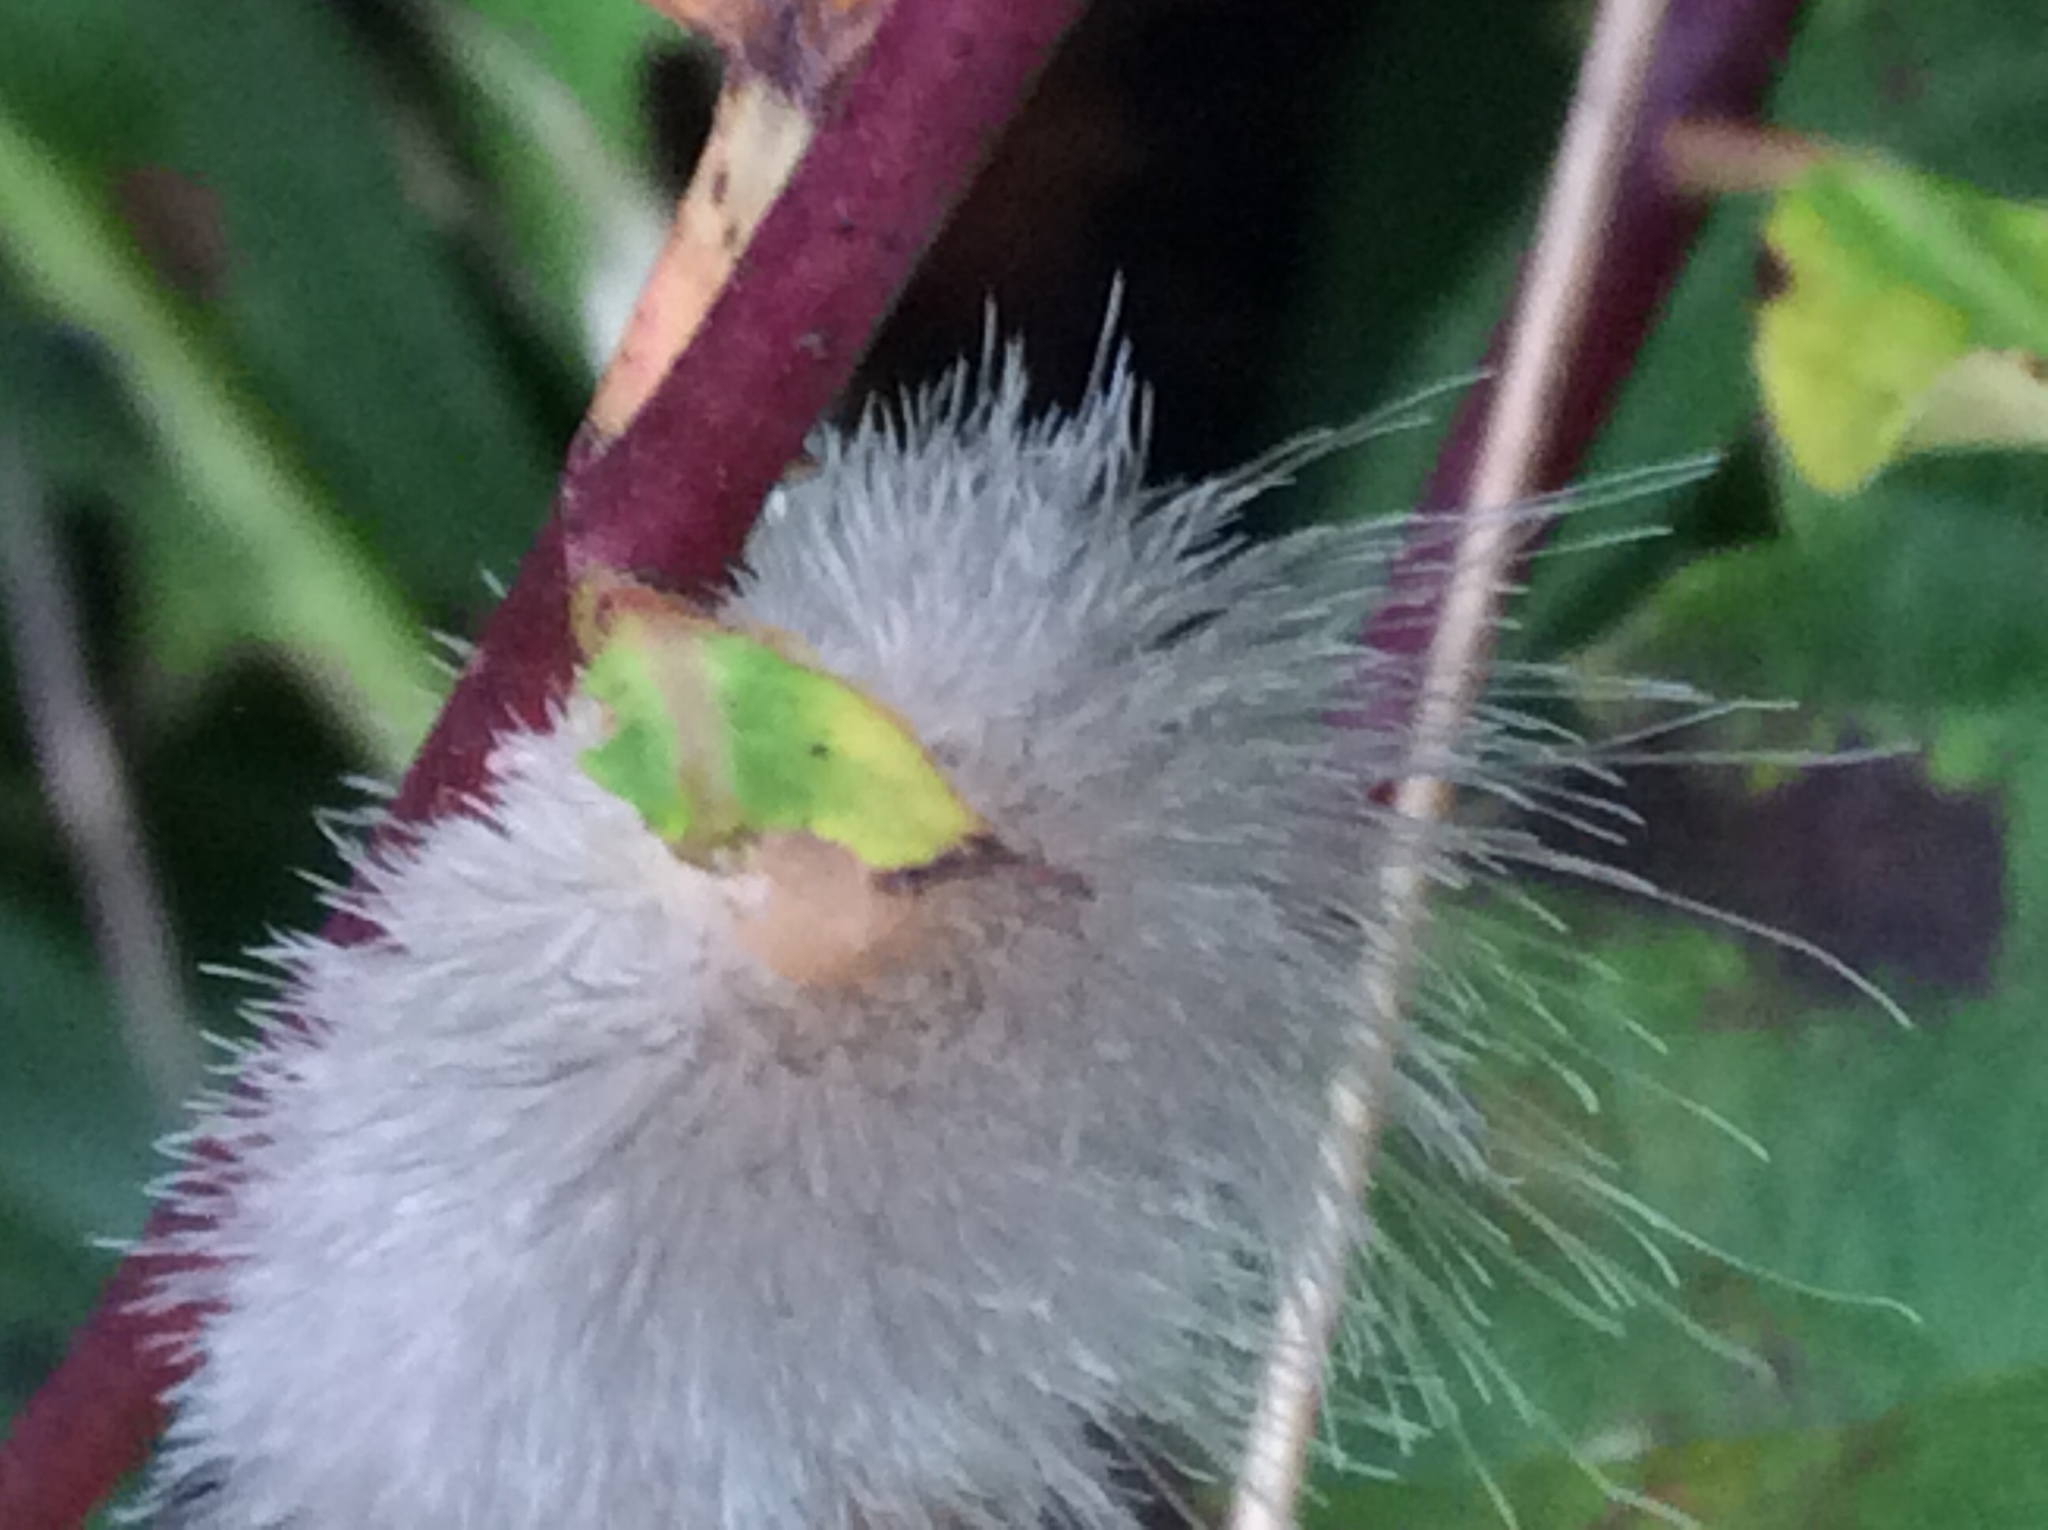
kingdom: Animalia
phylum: Arthropoda
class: Insecta
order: Lepidoptera
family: Erebidae
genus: Spilosoma
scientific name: Spilosoma virginica
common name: Virginia tiger moth
